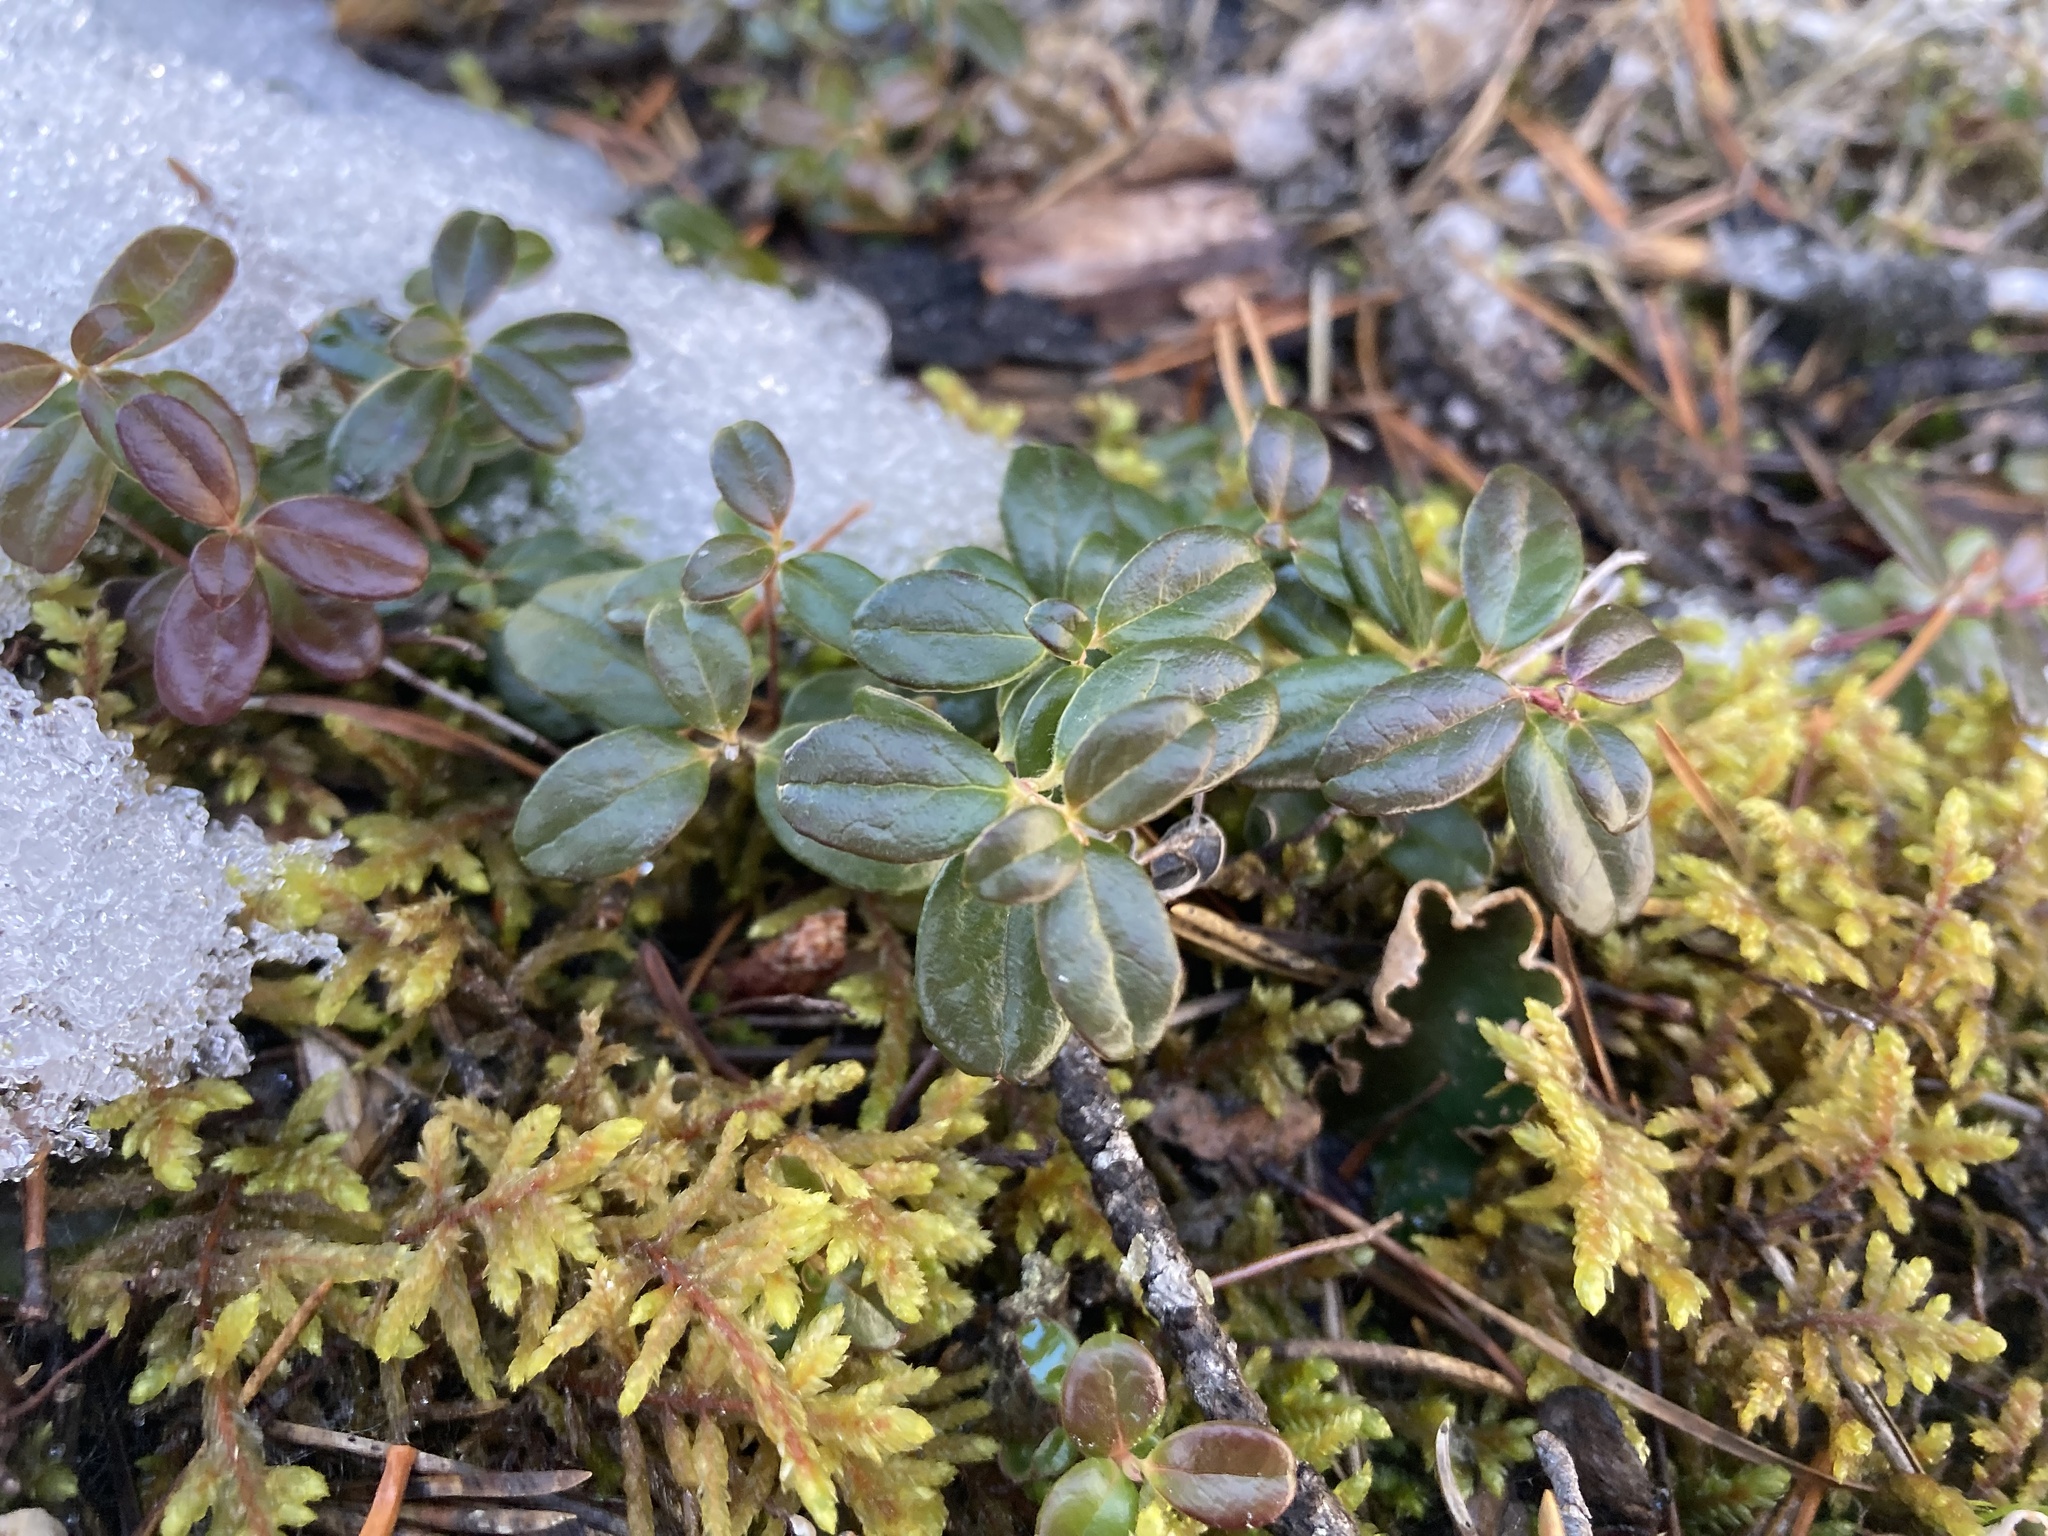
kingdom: Plantae
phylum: Tracheophyta
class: Magnoliopsida
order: Ericales
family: Ericaceae
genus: Vaccinium
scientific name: Vaccinium vitis-idaea
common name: Cowberry
